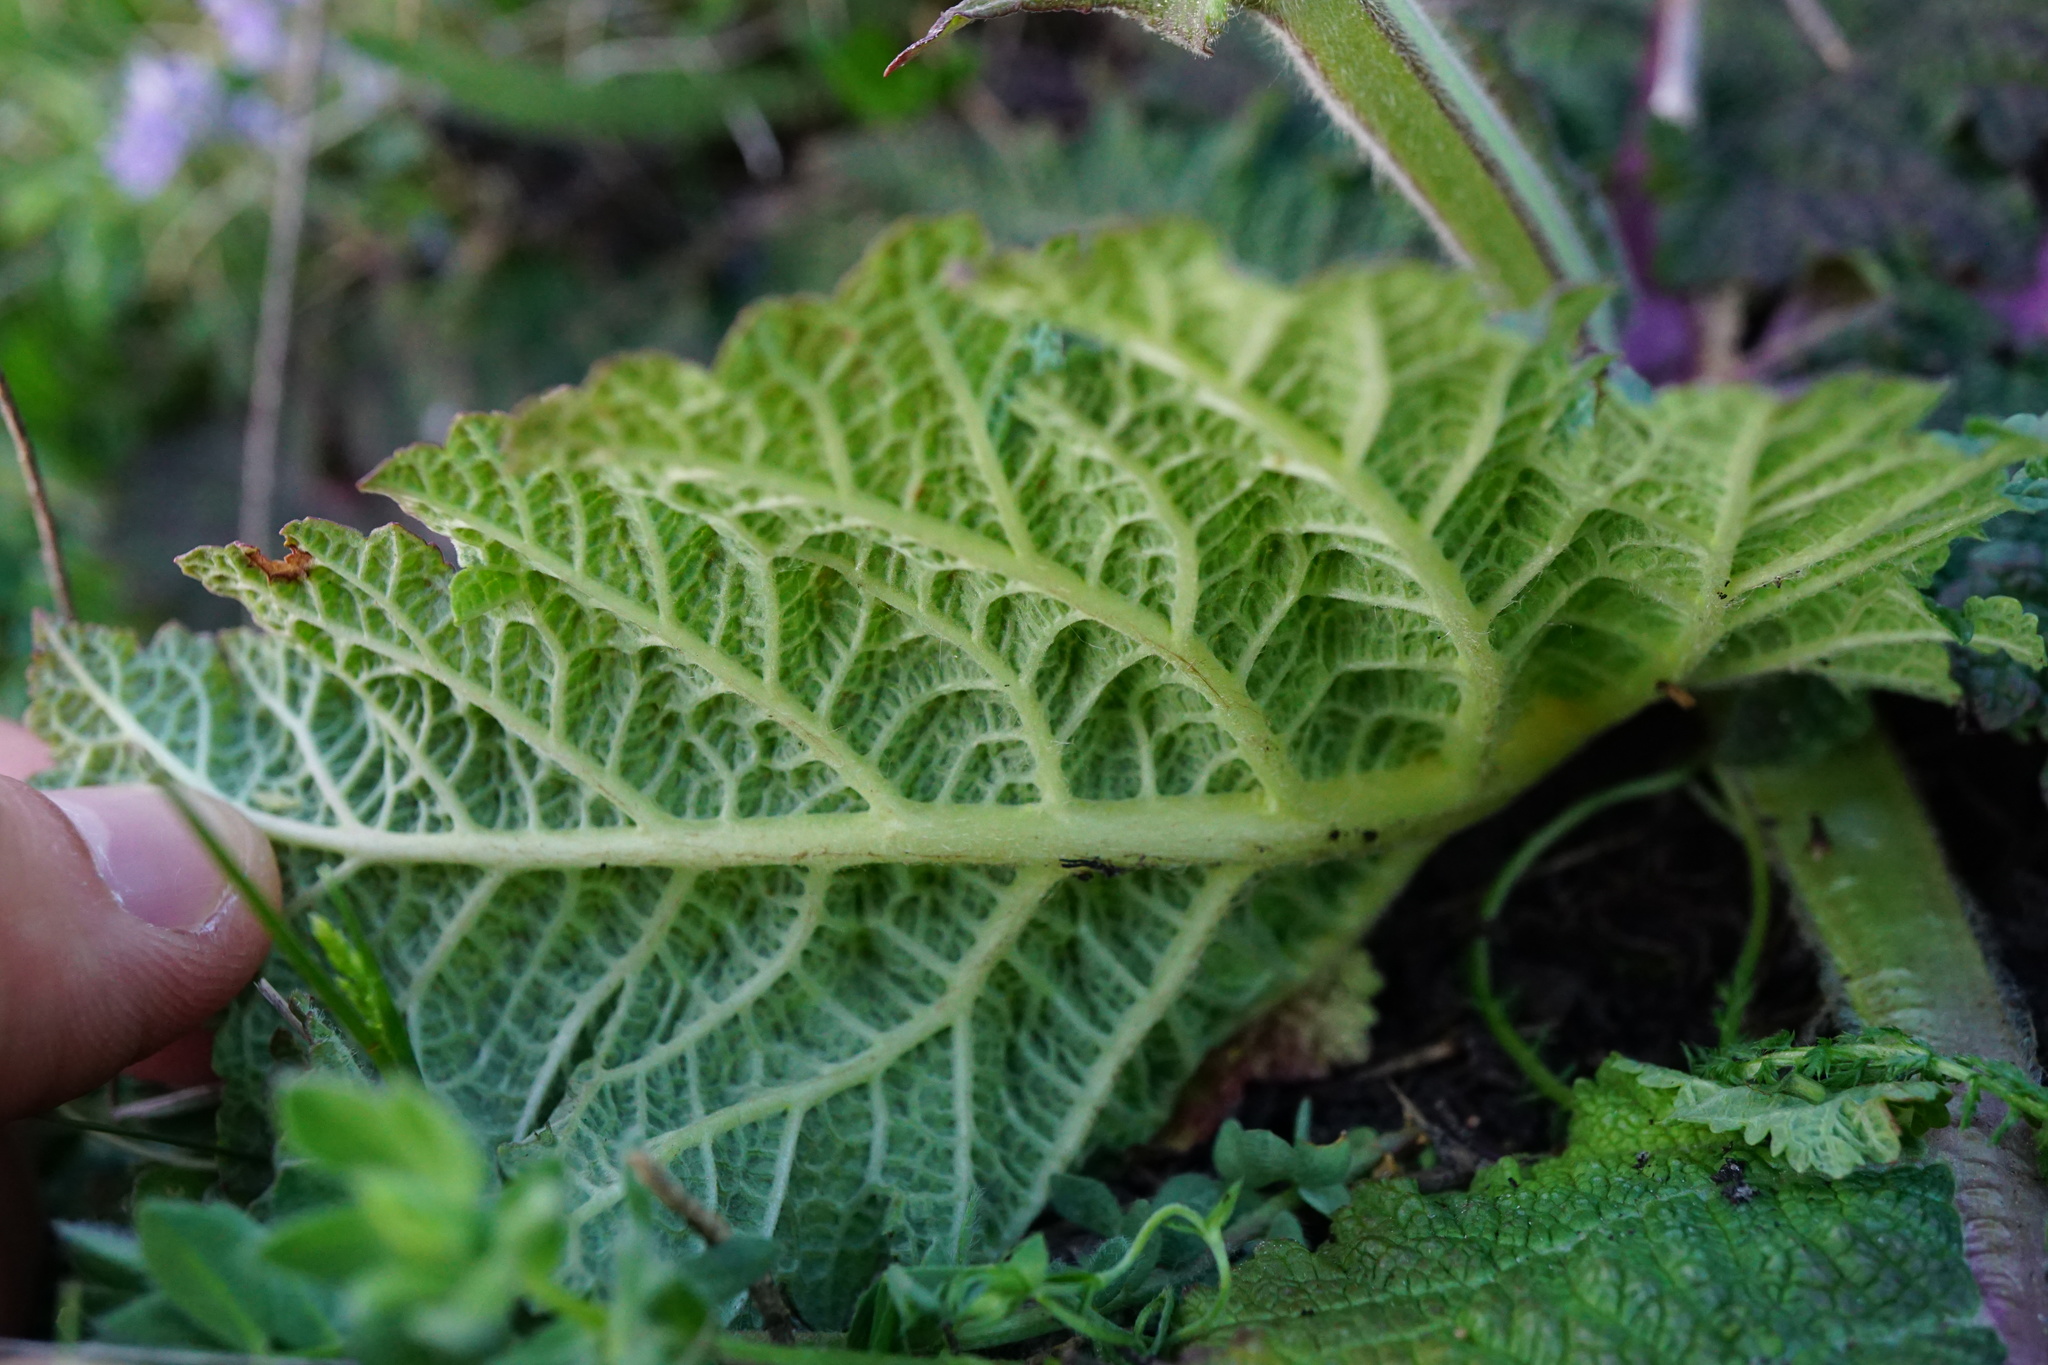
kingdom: Plantae
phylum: Tracheophyta
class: Magnoliopsida
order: Lamiales
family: Lamiaceae
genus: Salvia
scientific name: Salvia austriaca
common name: Austrian sage
